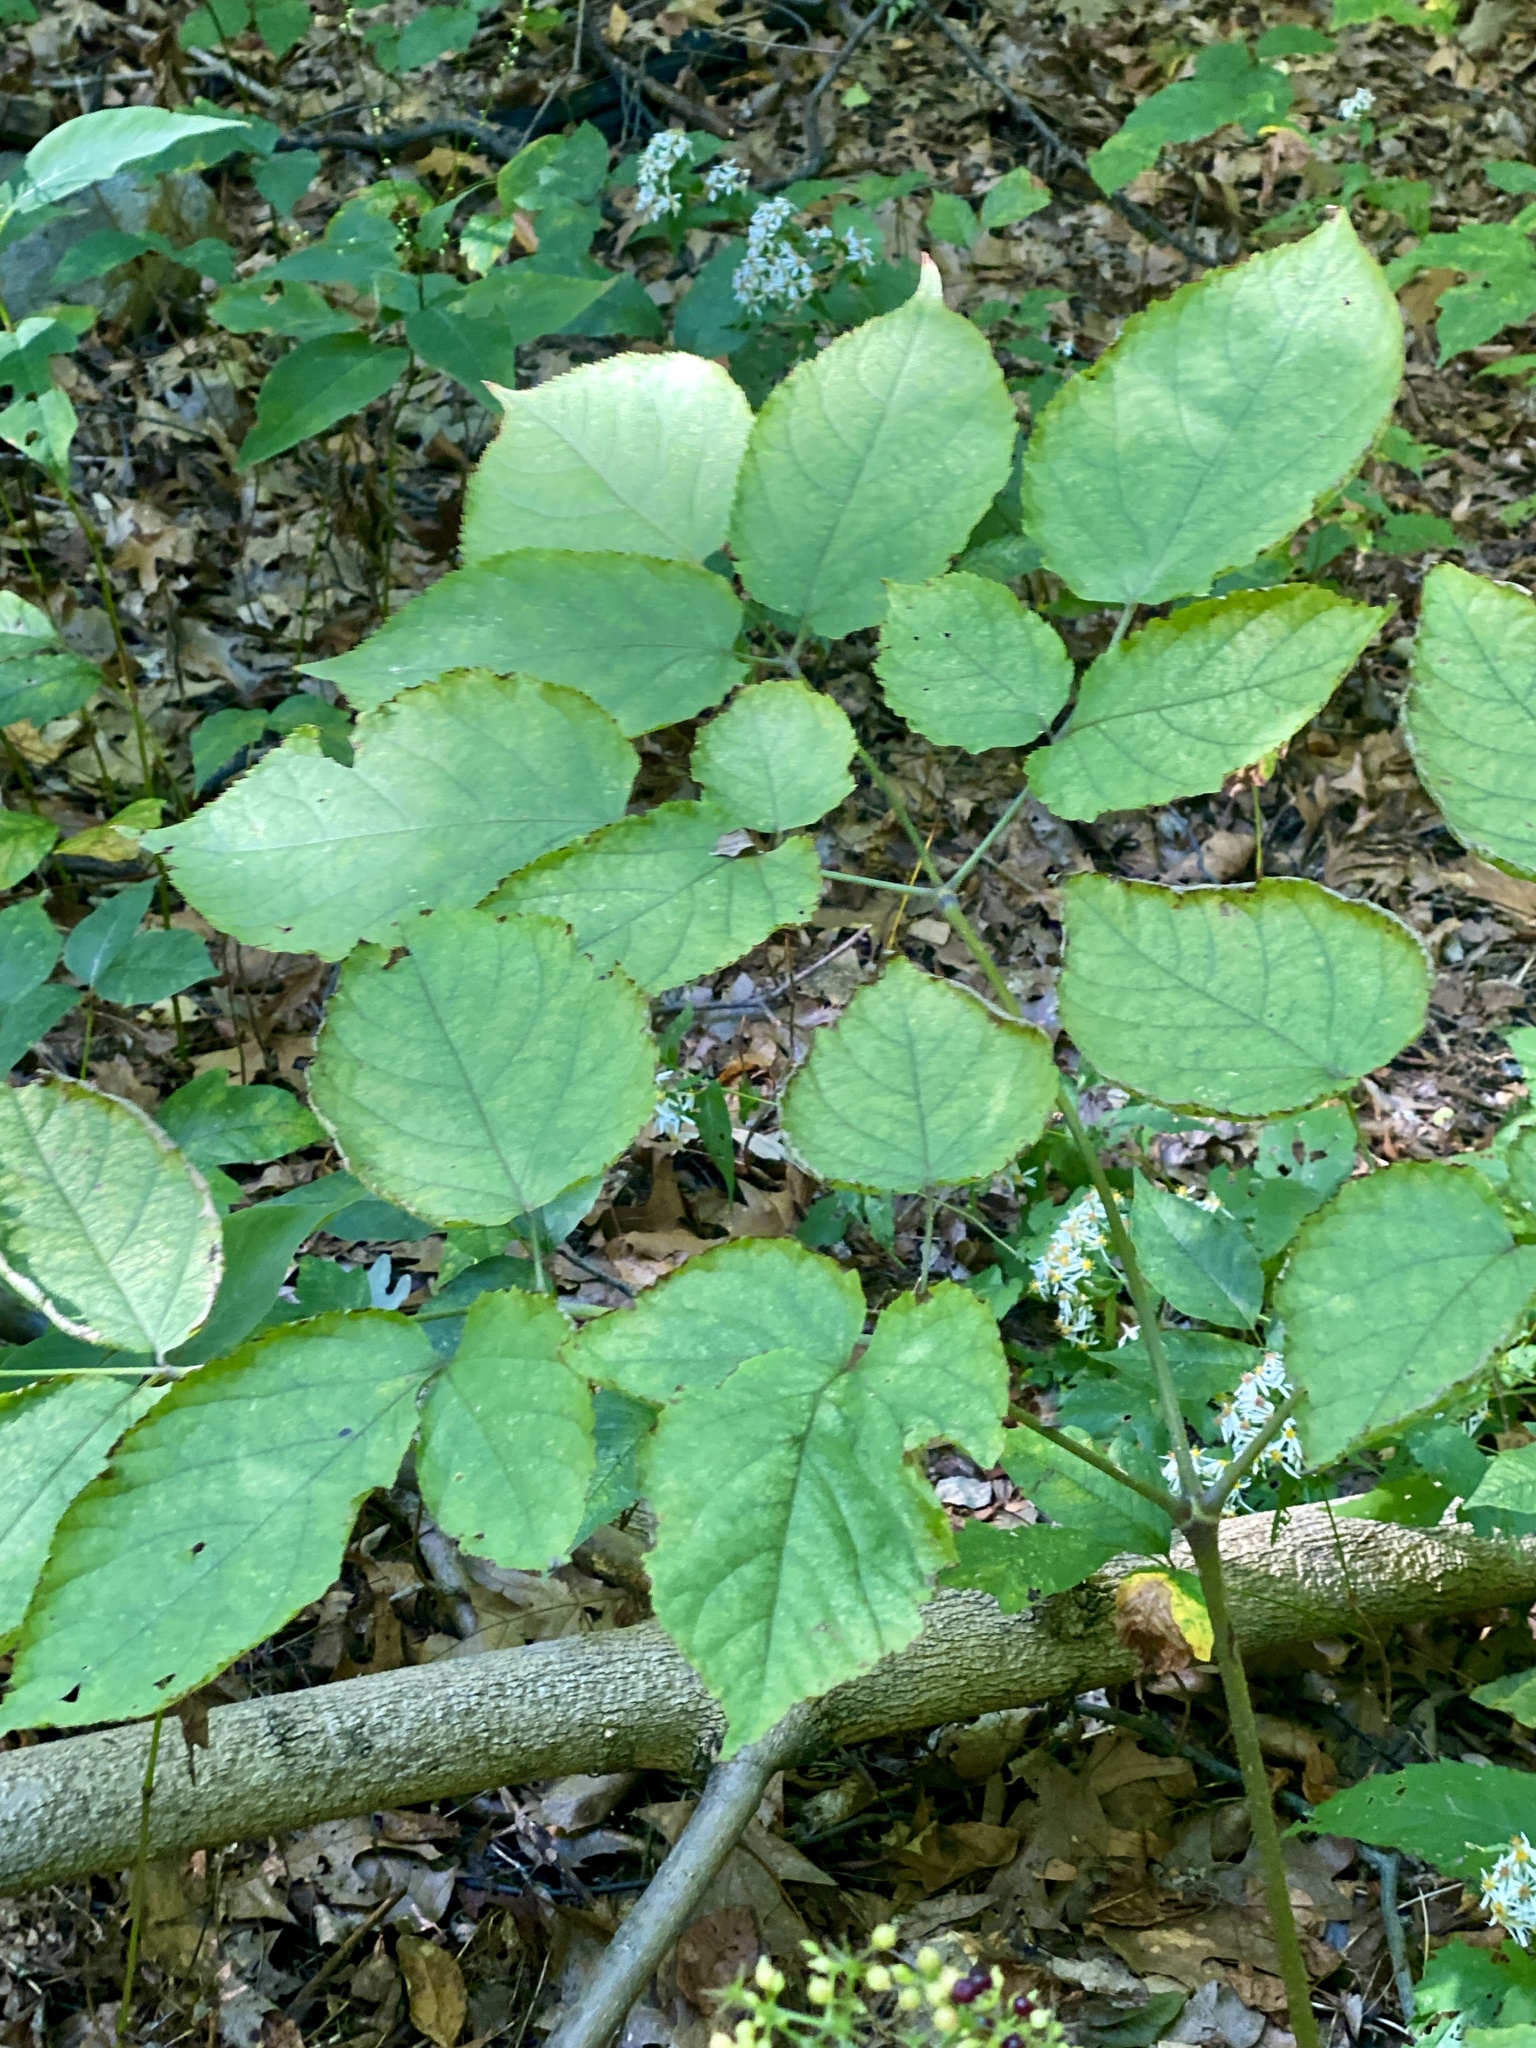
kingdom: Plantae
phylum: Tracheophyta
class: Magnoliopsida
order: Apiales
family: Araliaceae
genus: Aralia
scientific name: Aralia racemosa
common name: American-spikenard
